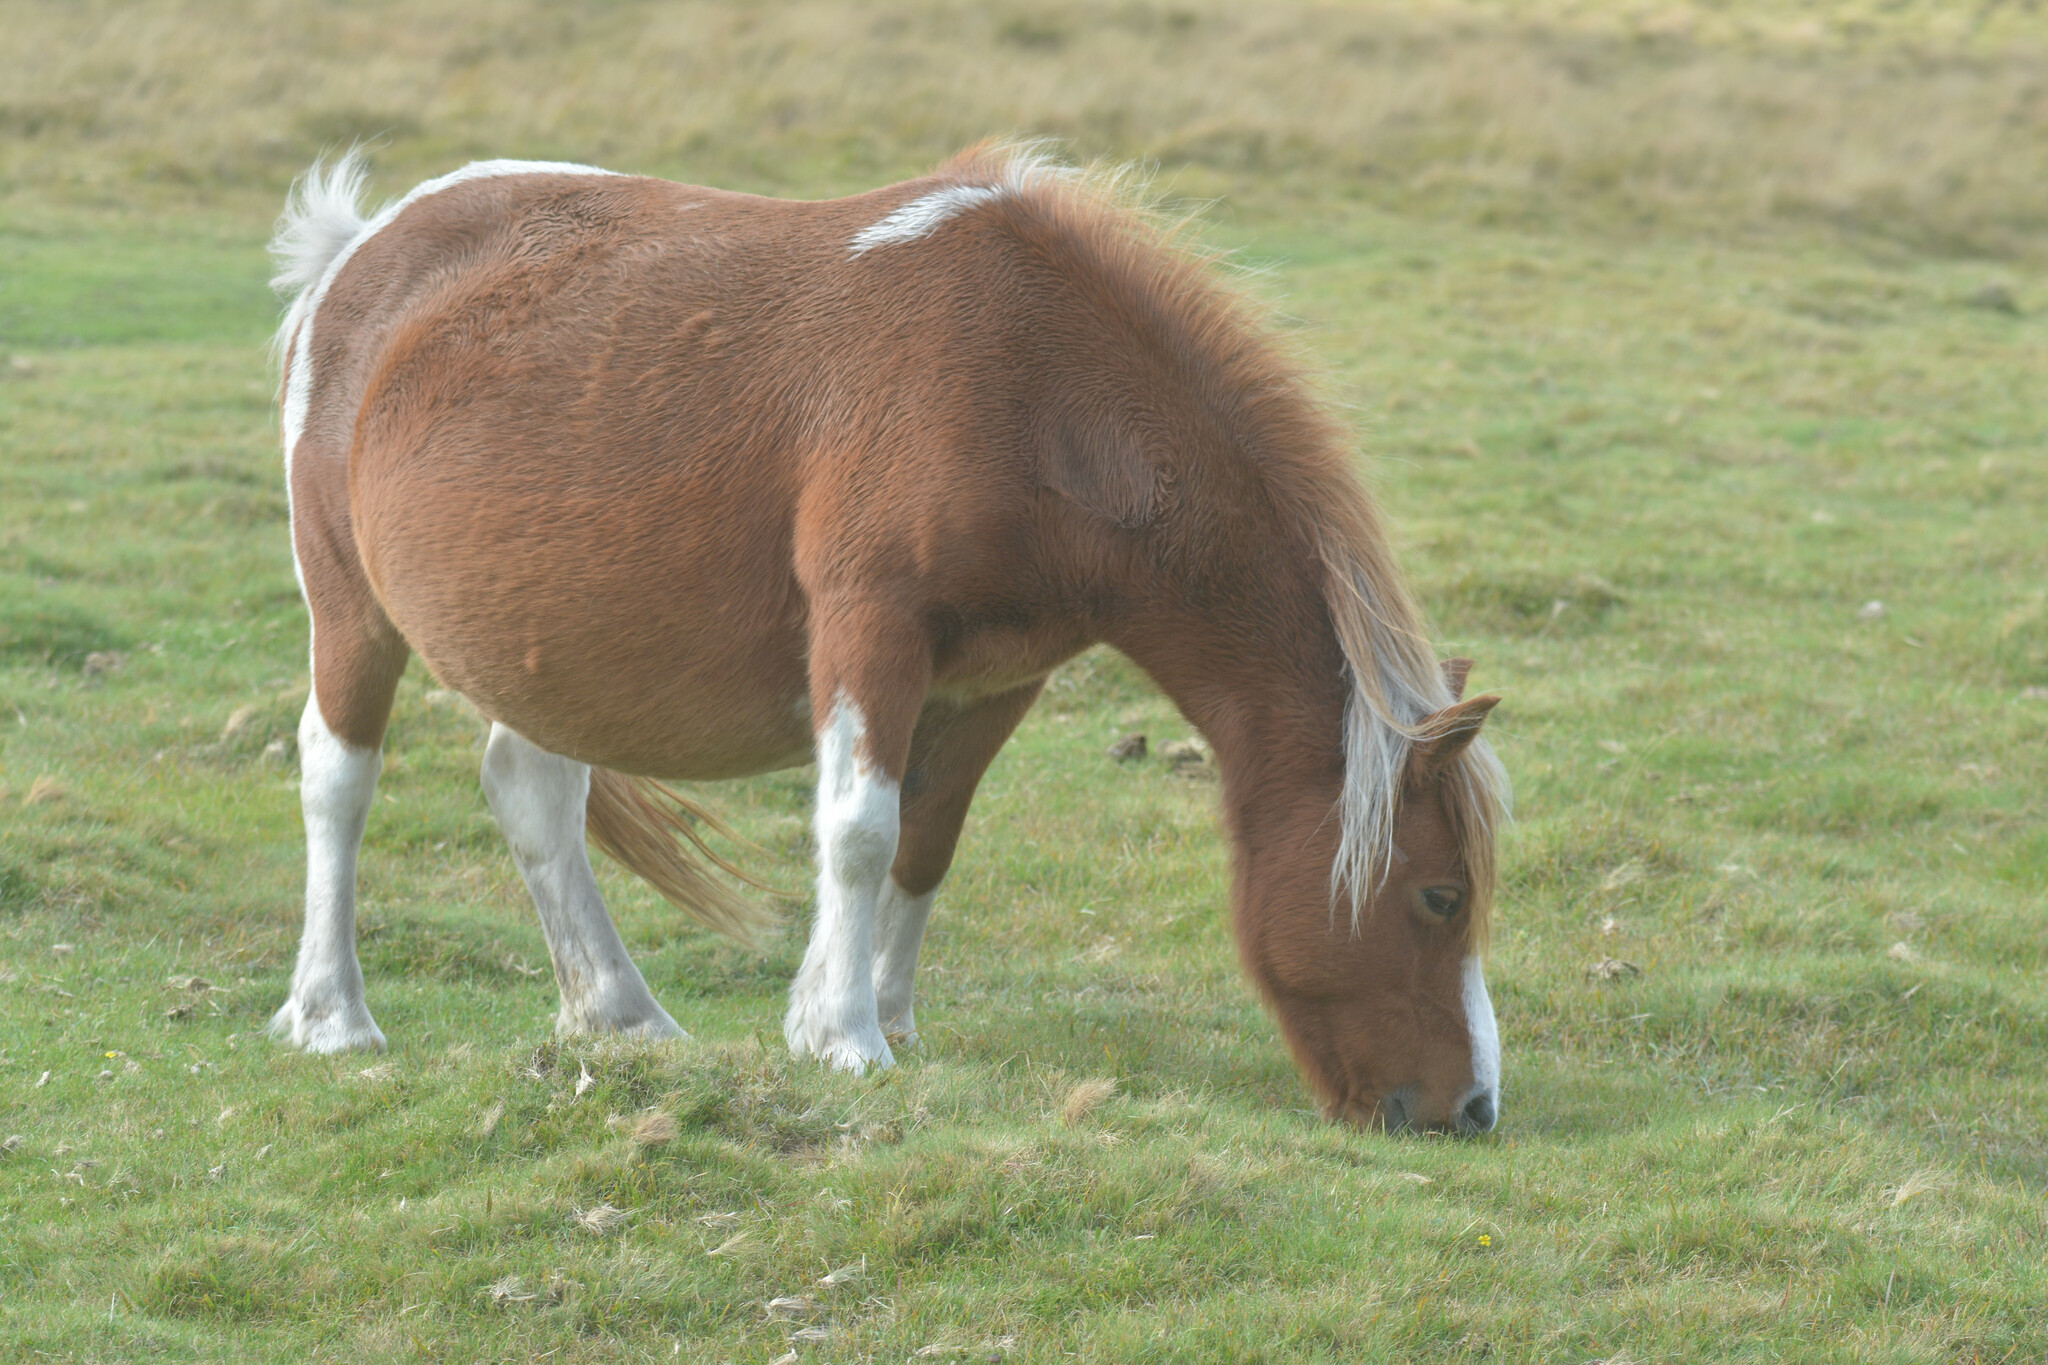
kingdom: Animalia
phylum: Chordata
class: Mammalia
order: Perissodactyla
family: Equidae
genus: Equus
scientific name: Equus caballus
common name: Horse
